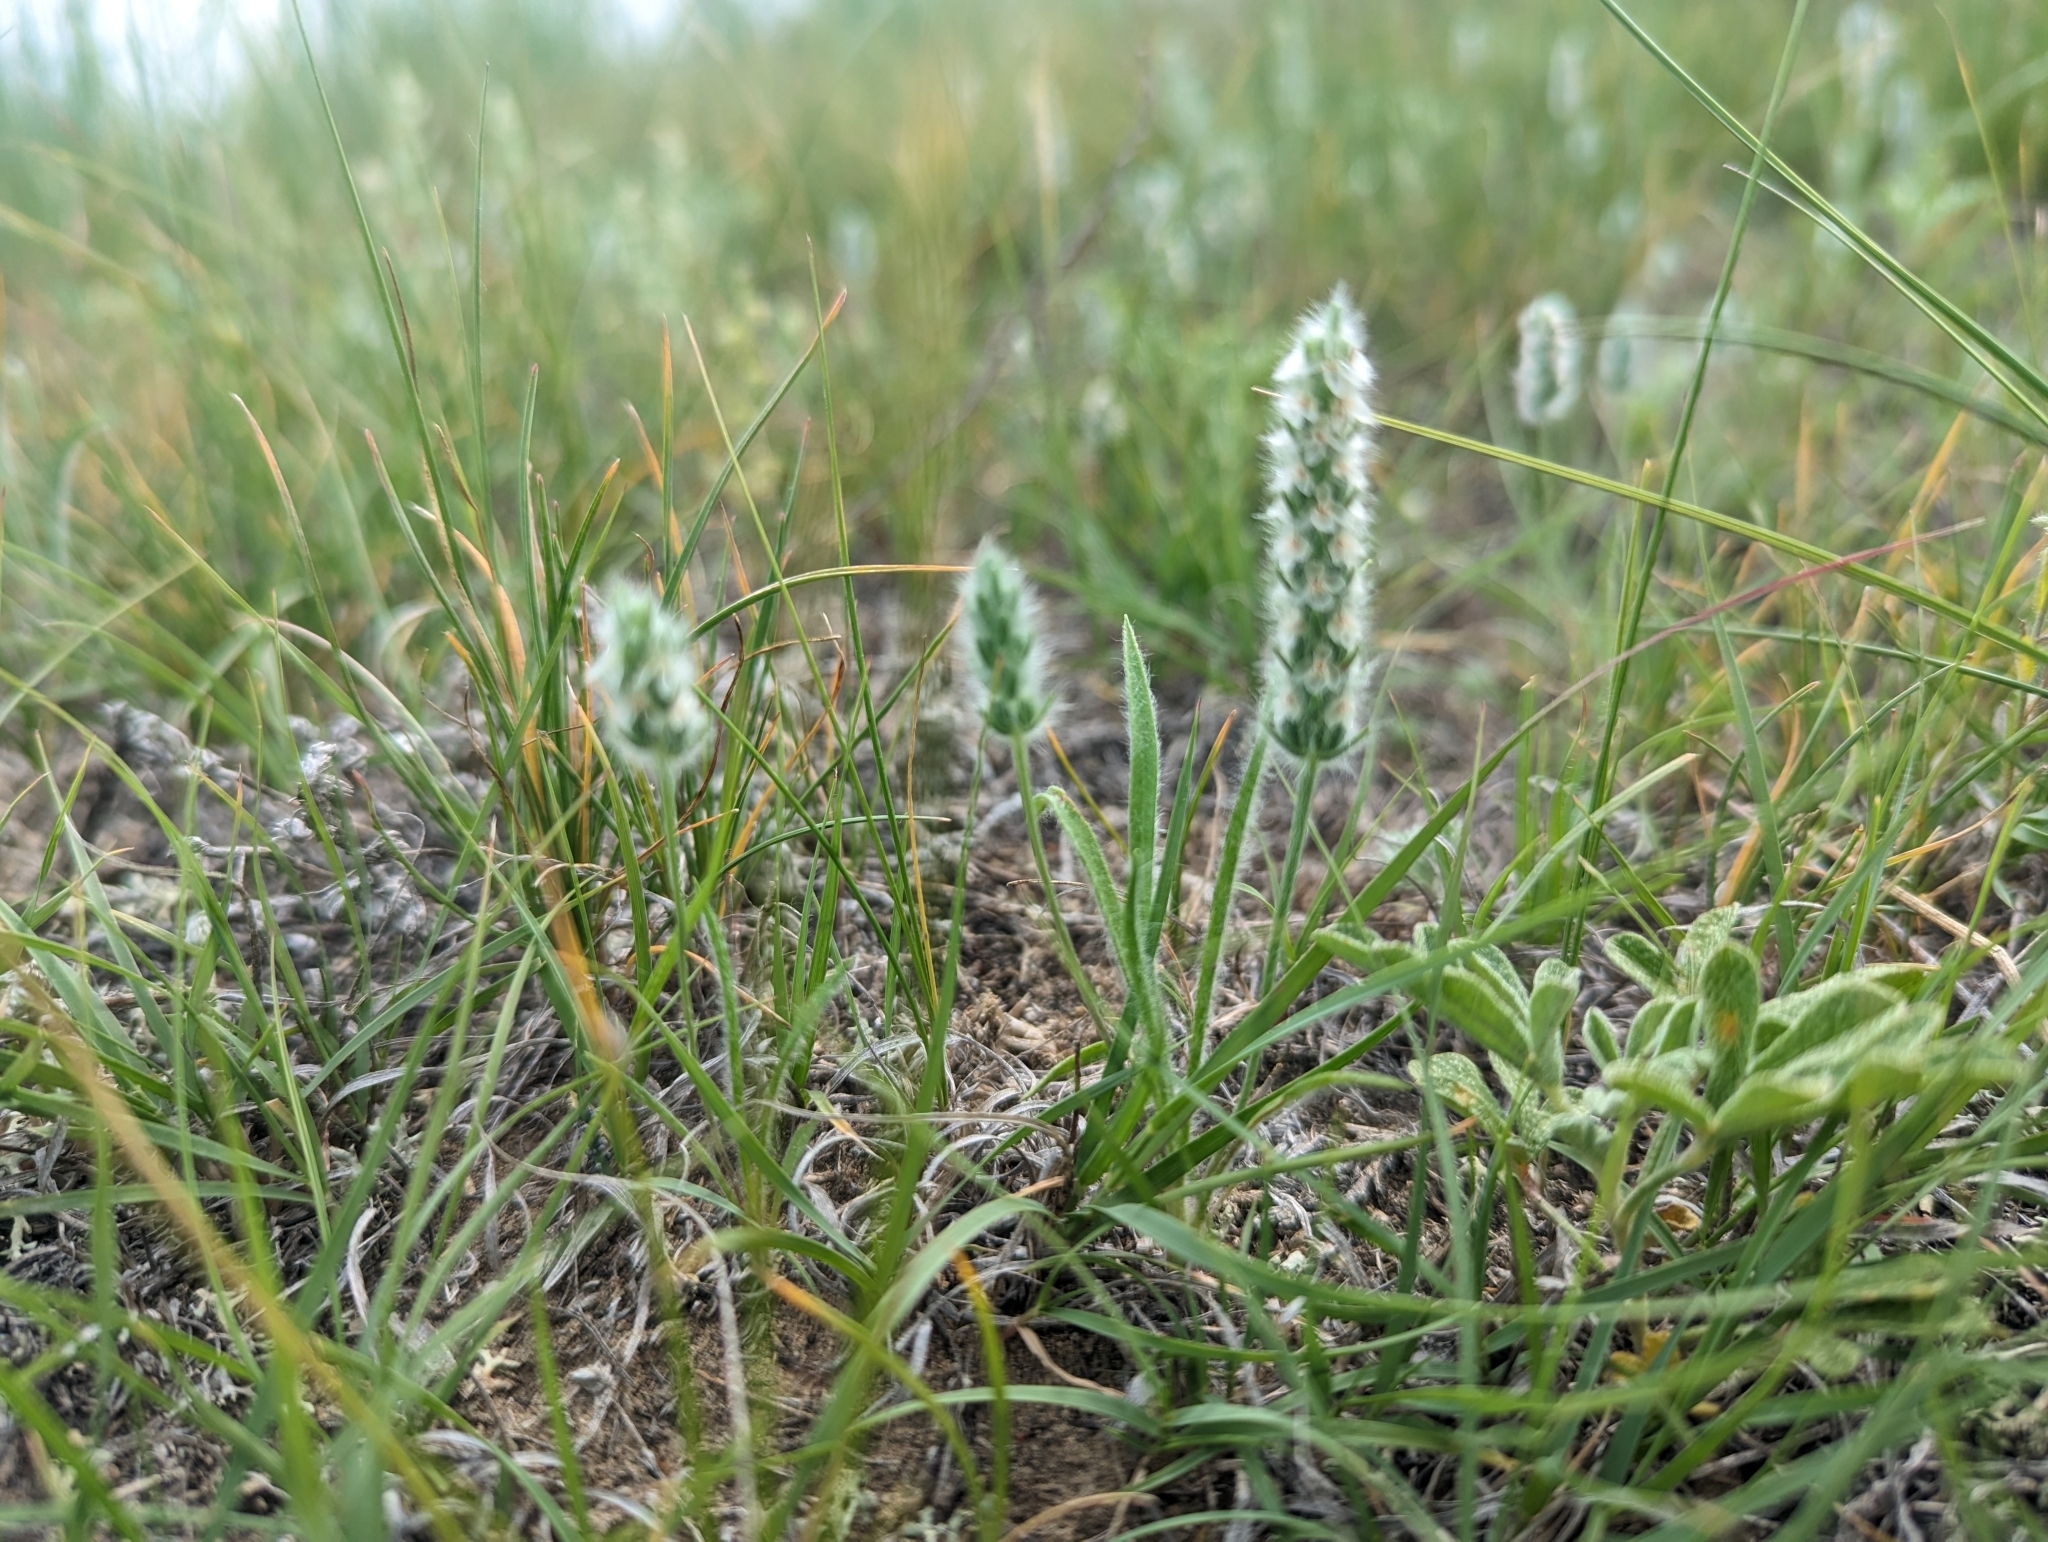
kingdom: Plantae
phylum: Tracheophyta
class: Magnoliopsida
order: Lamiales
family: Plantaginaceae
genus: Plantago
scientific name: Plantago patagonica
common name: Patagonia indian-wheat
